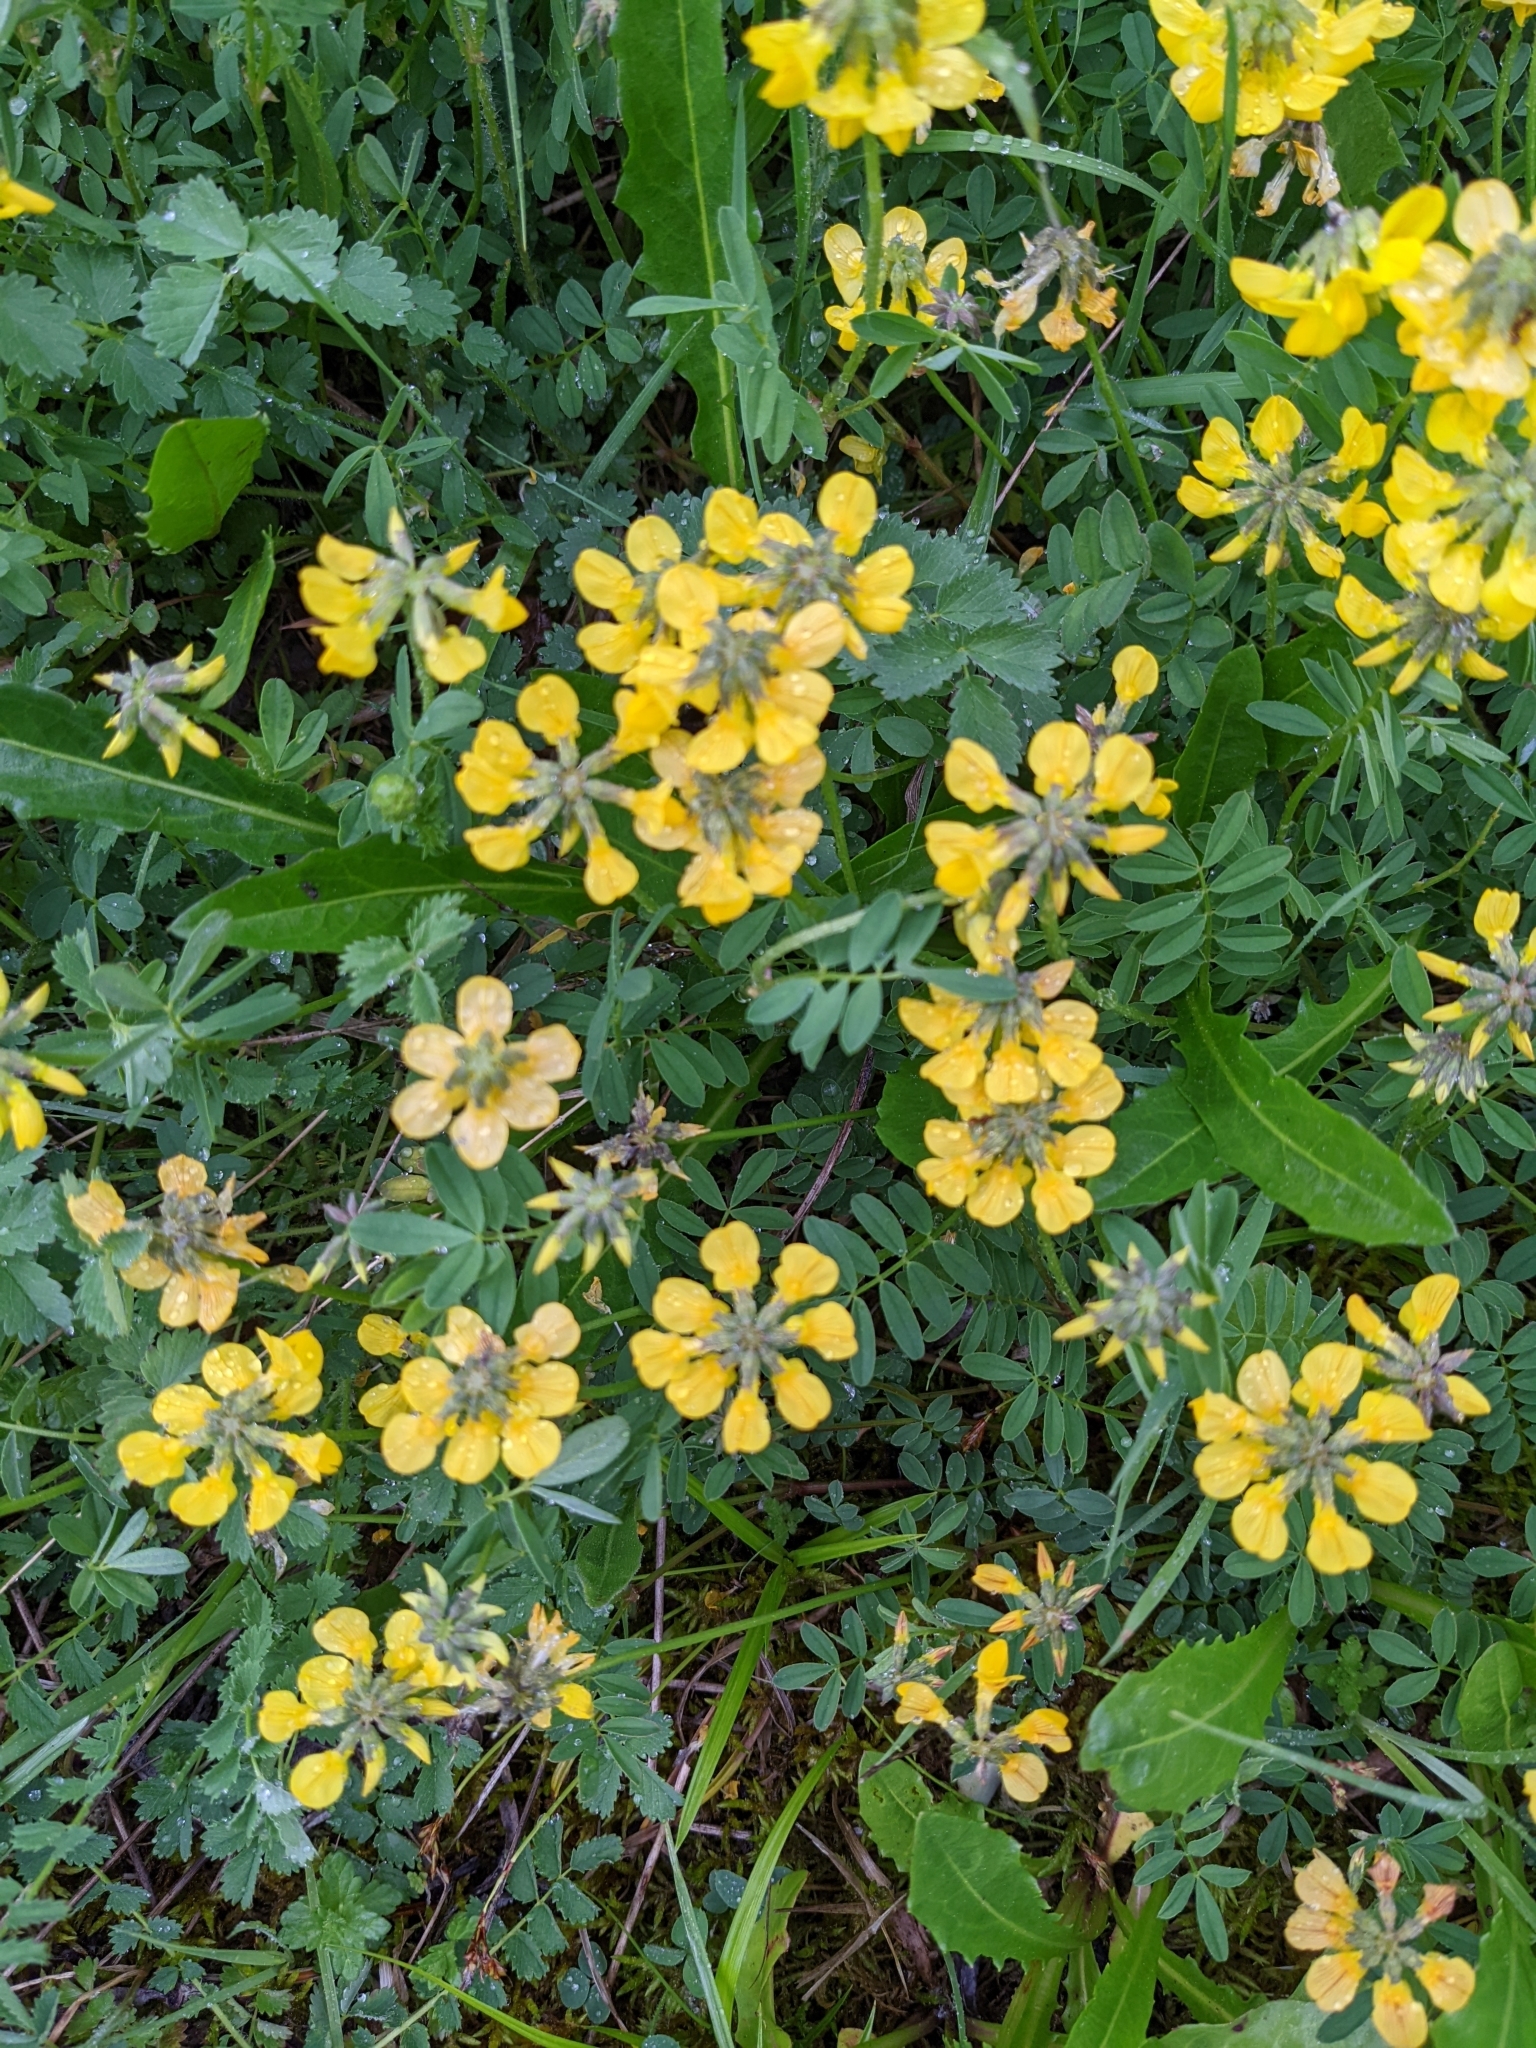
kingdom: Plantae
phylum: Tracheophyta
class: Magnoliopsida
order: Fabales
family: Fabaceae
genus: Hippocrepis
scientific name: Hippocrepis comosa
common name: Horseshoe vetch
